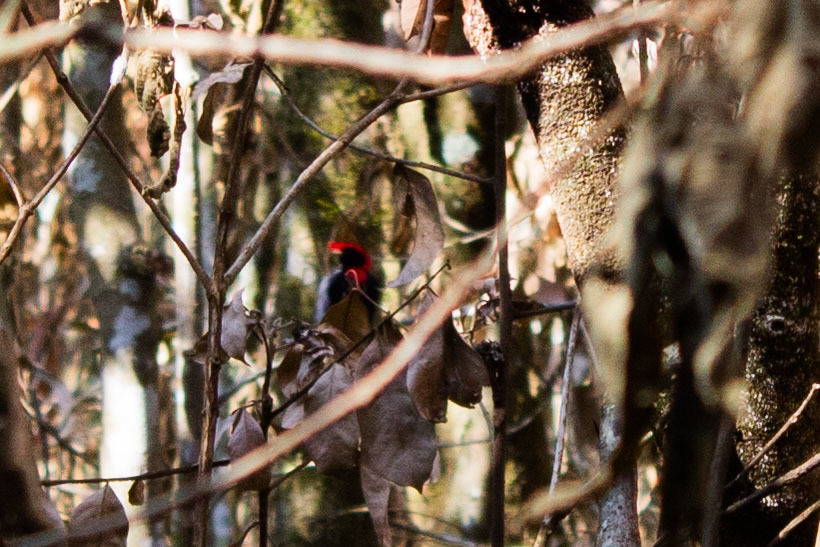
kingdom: Animalia
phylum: Chordata
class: Aves
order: Passeriformes
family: Pipridae
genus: Antilophia
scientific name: Antilophia galeata
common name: Helmeted manakin
